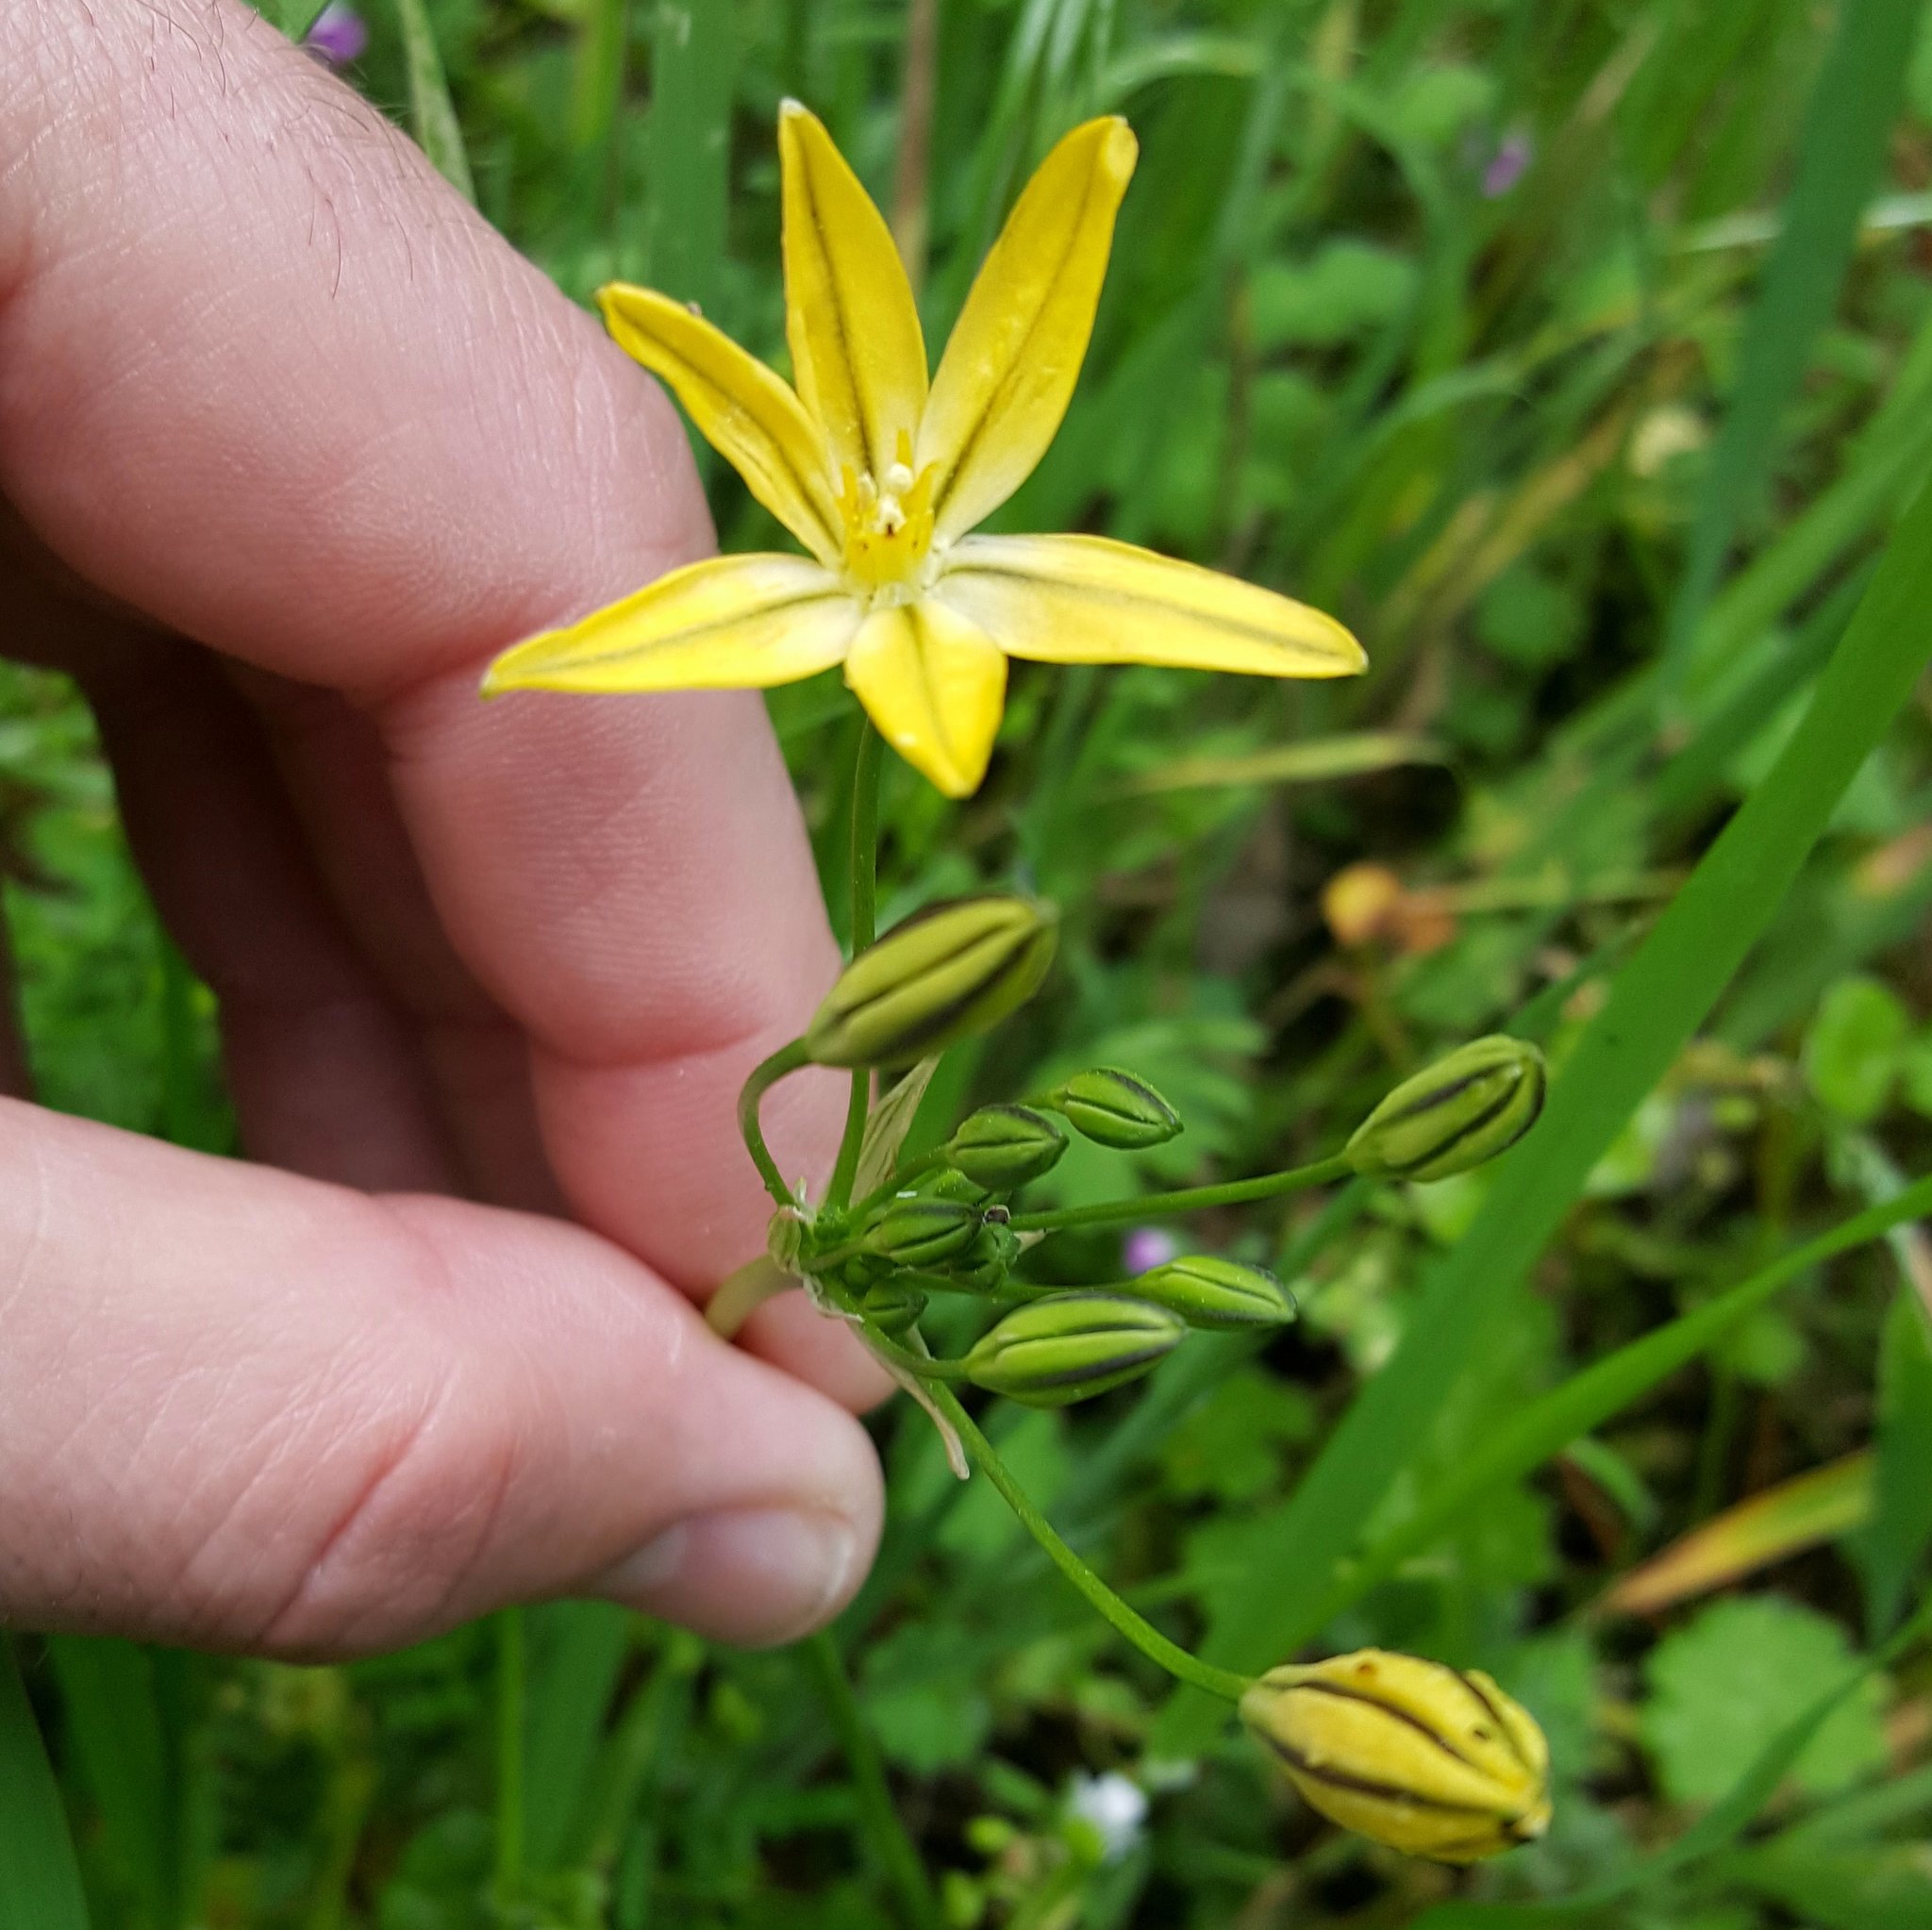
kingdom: Plantae
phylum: Tracheophyta
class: Liliopsida
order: Asparagales
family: Asparagaceae
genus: Triteleia
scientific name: Triteleia ixioides
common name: Yellow-brodiaea
